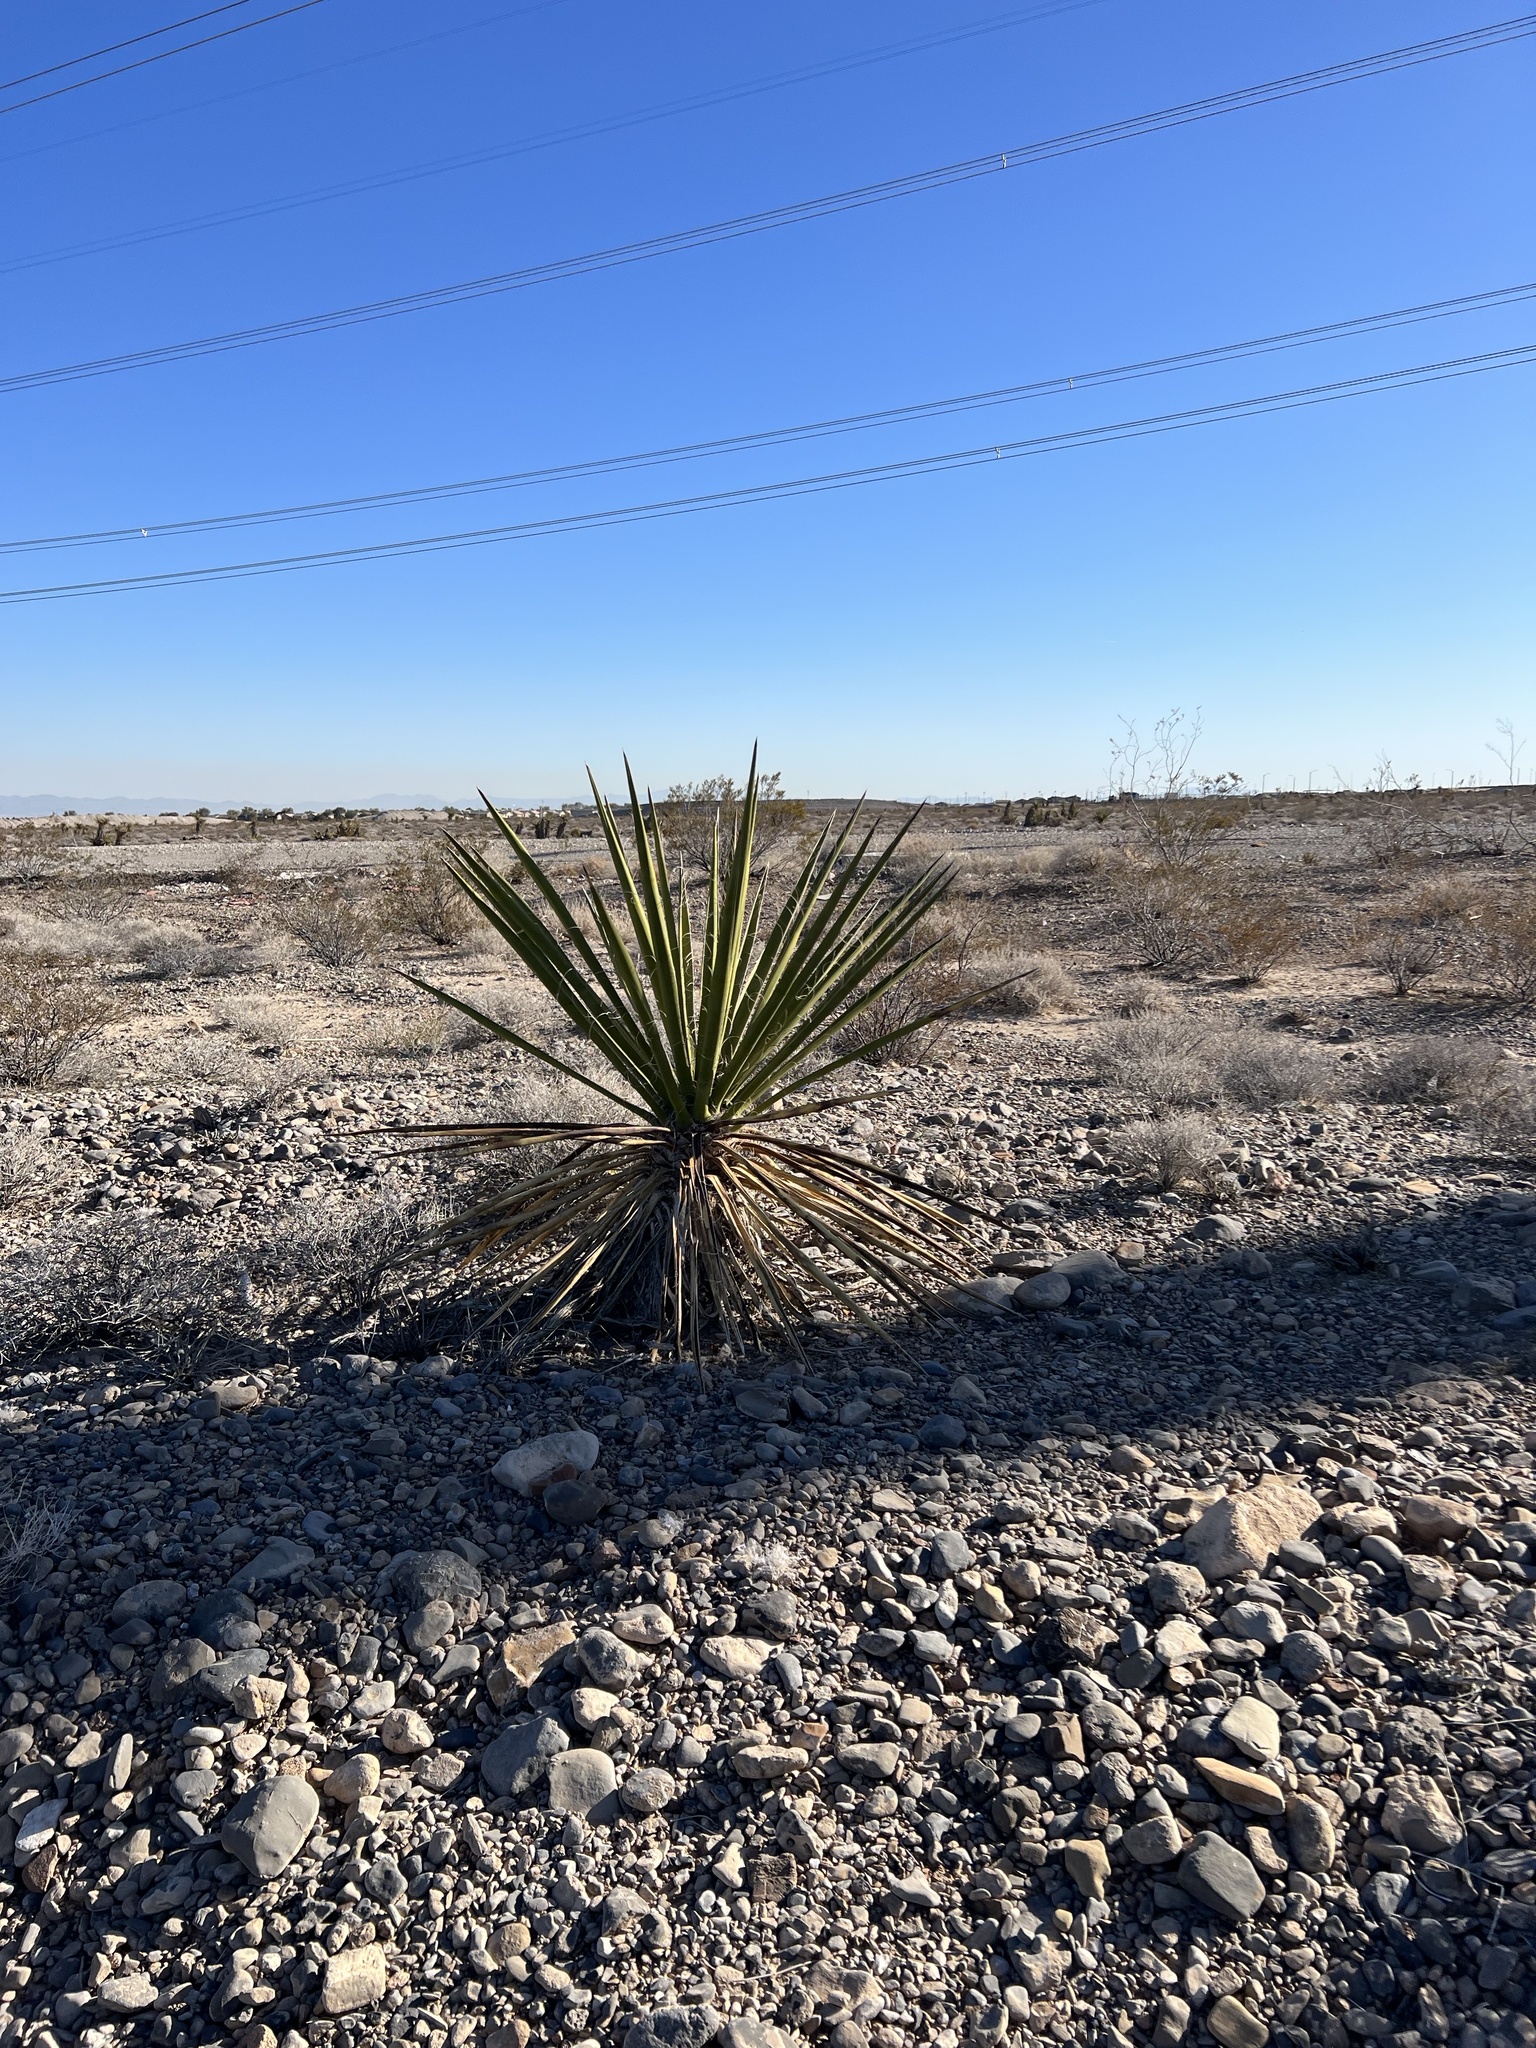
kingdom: Plantae
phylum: Tracheophyta
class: Liliopsida
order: Asparagales
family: Asparagaceae
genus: Yucca
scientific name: Yucca schidigera
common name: Mojave yucca
